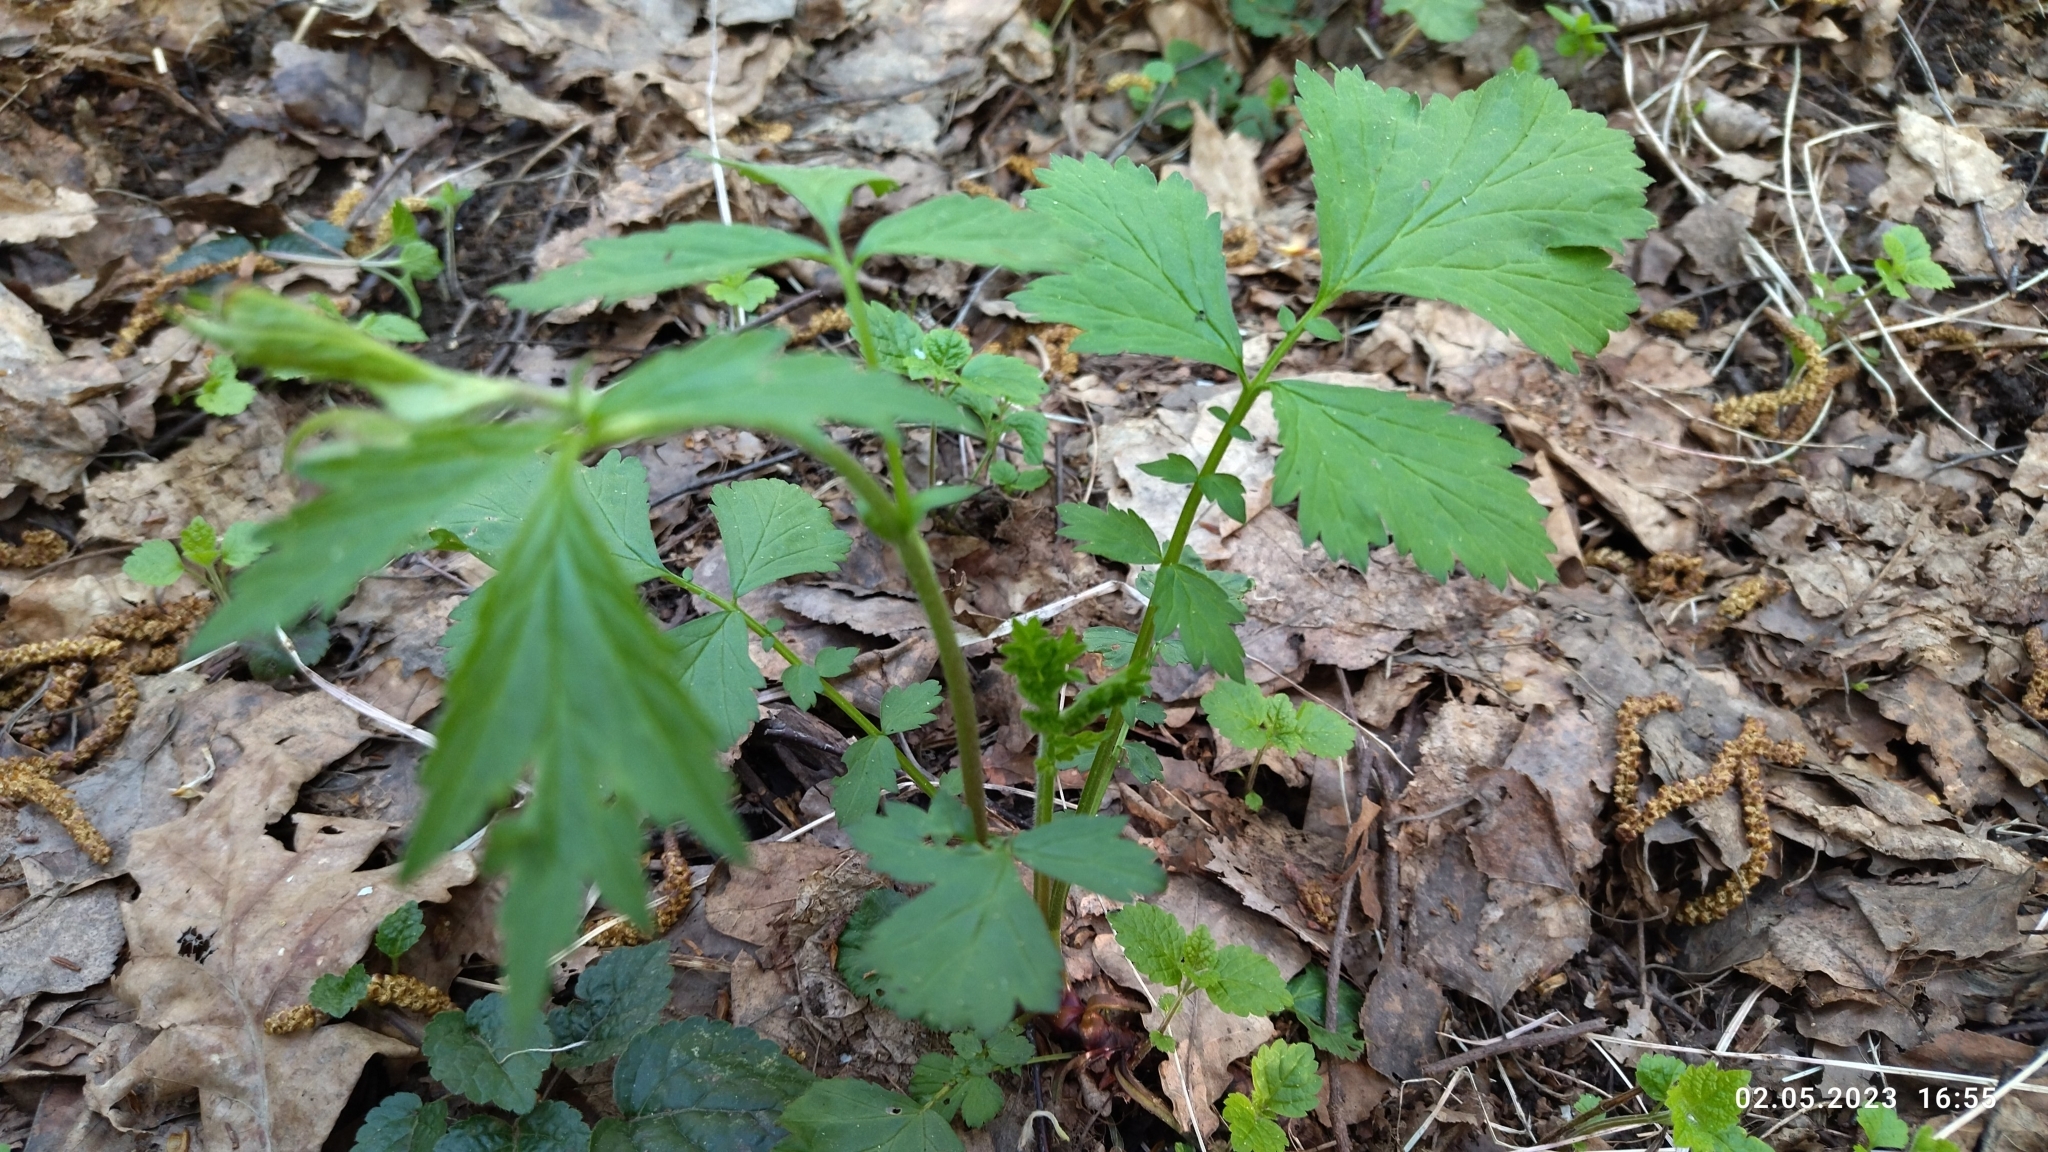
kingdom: Plantae
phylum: Tracheophyta
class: Magnoliopsida
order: Rosales
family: Rosaceae
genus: Geum
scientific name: Geum rivale
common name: Water avens
